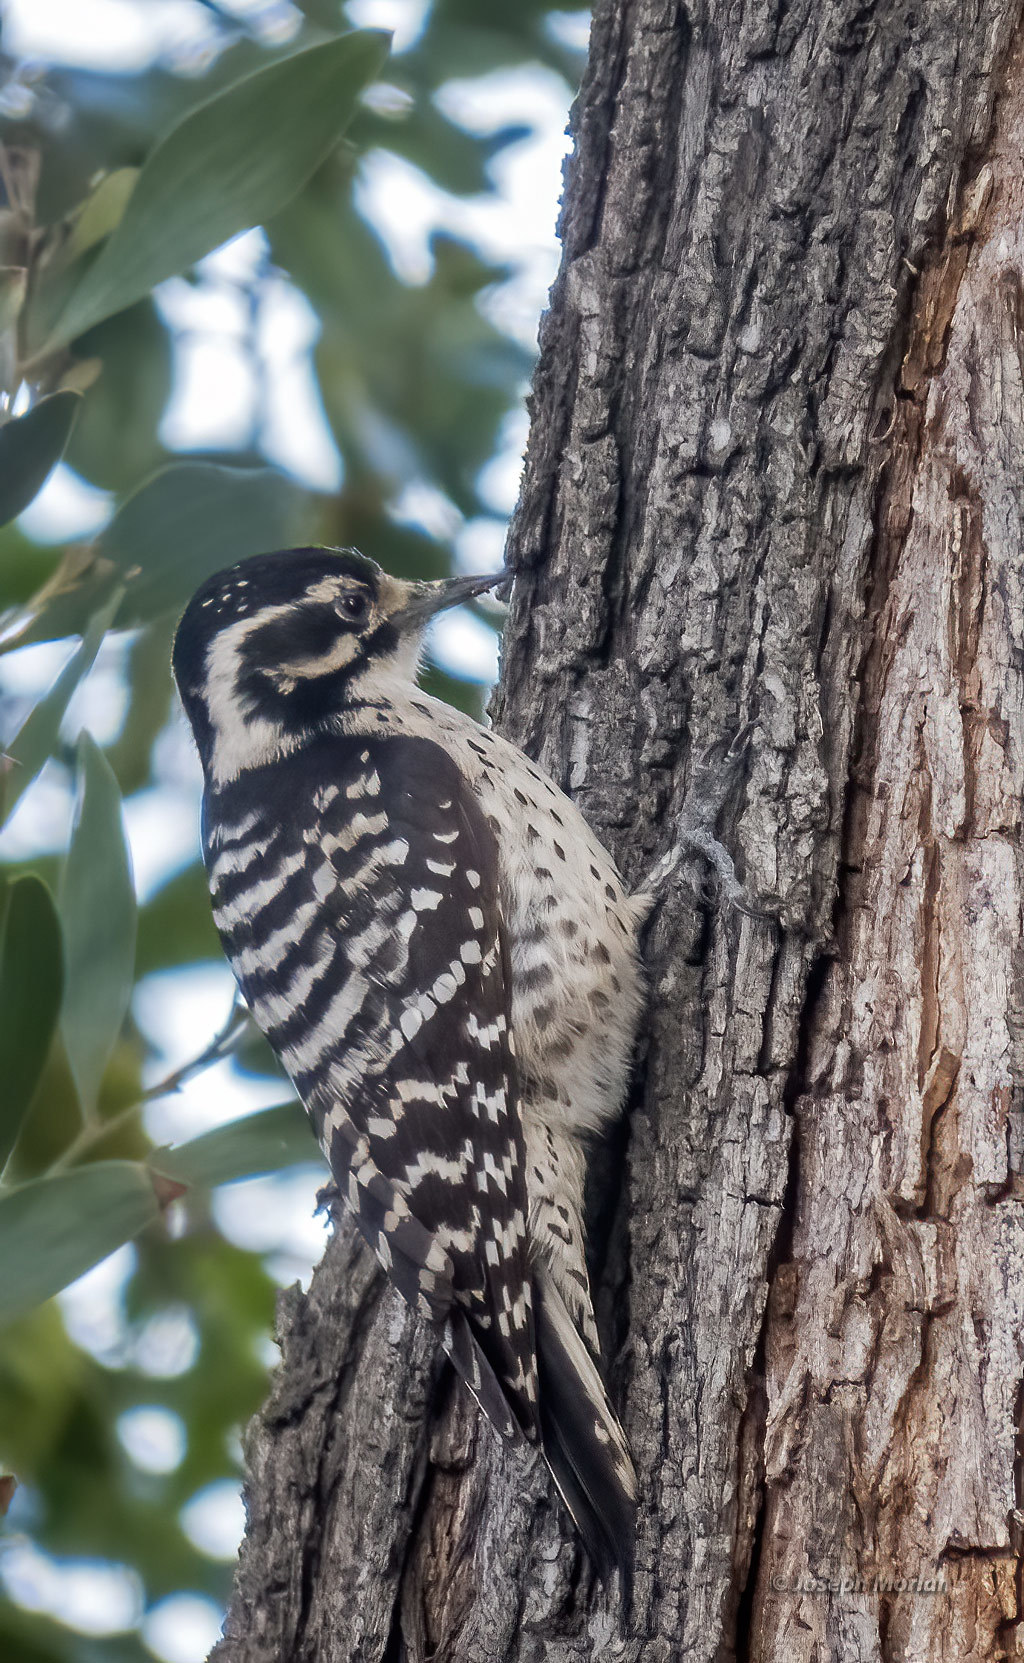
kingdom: Animalia
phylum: Chordata
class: Aves
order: Piciformes
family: Picidae
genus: Dryobates
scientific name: Dryobates nuttallii
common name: Nuttall's woodpecker
